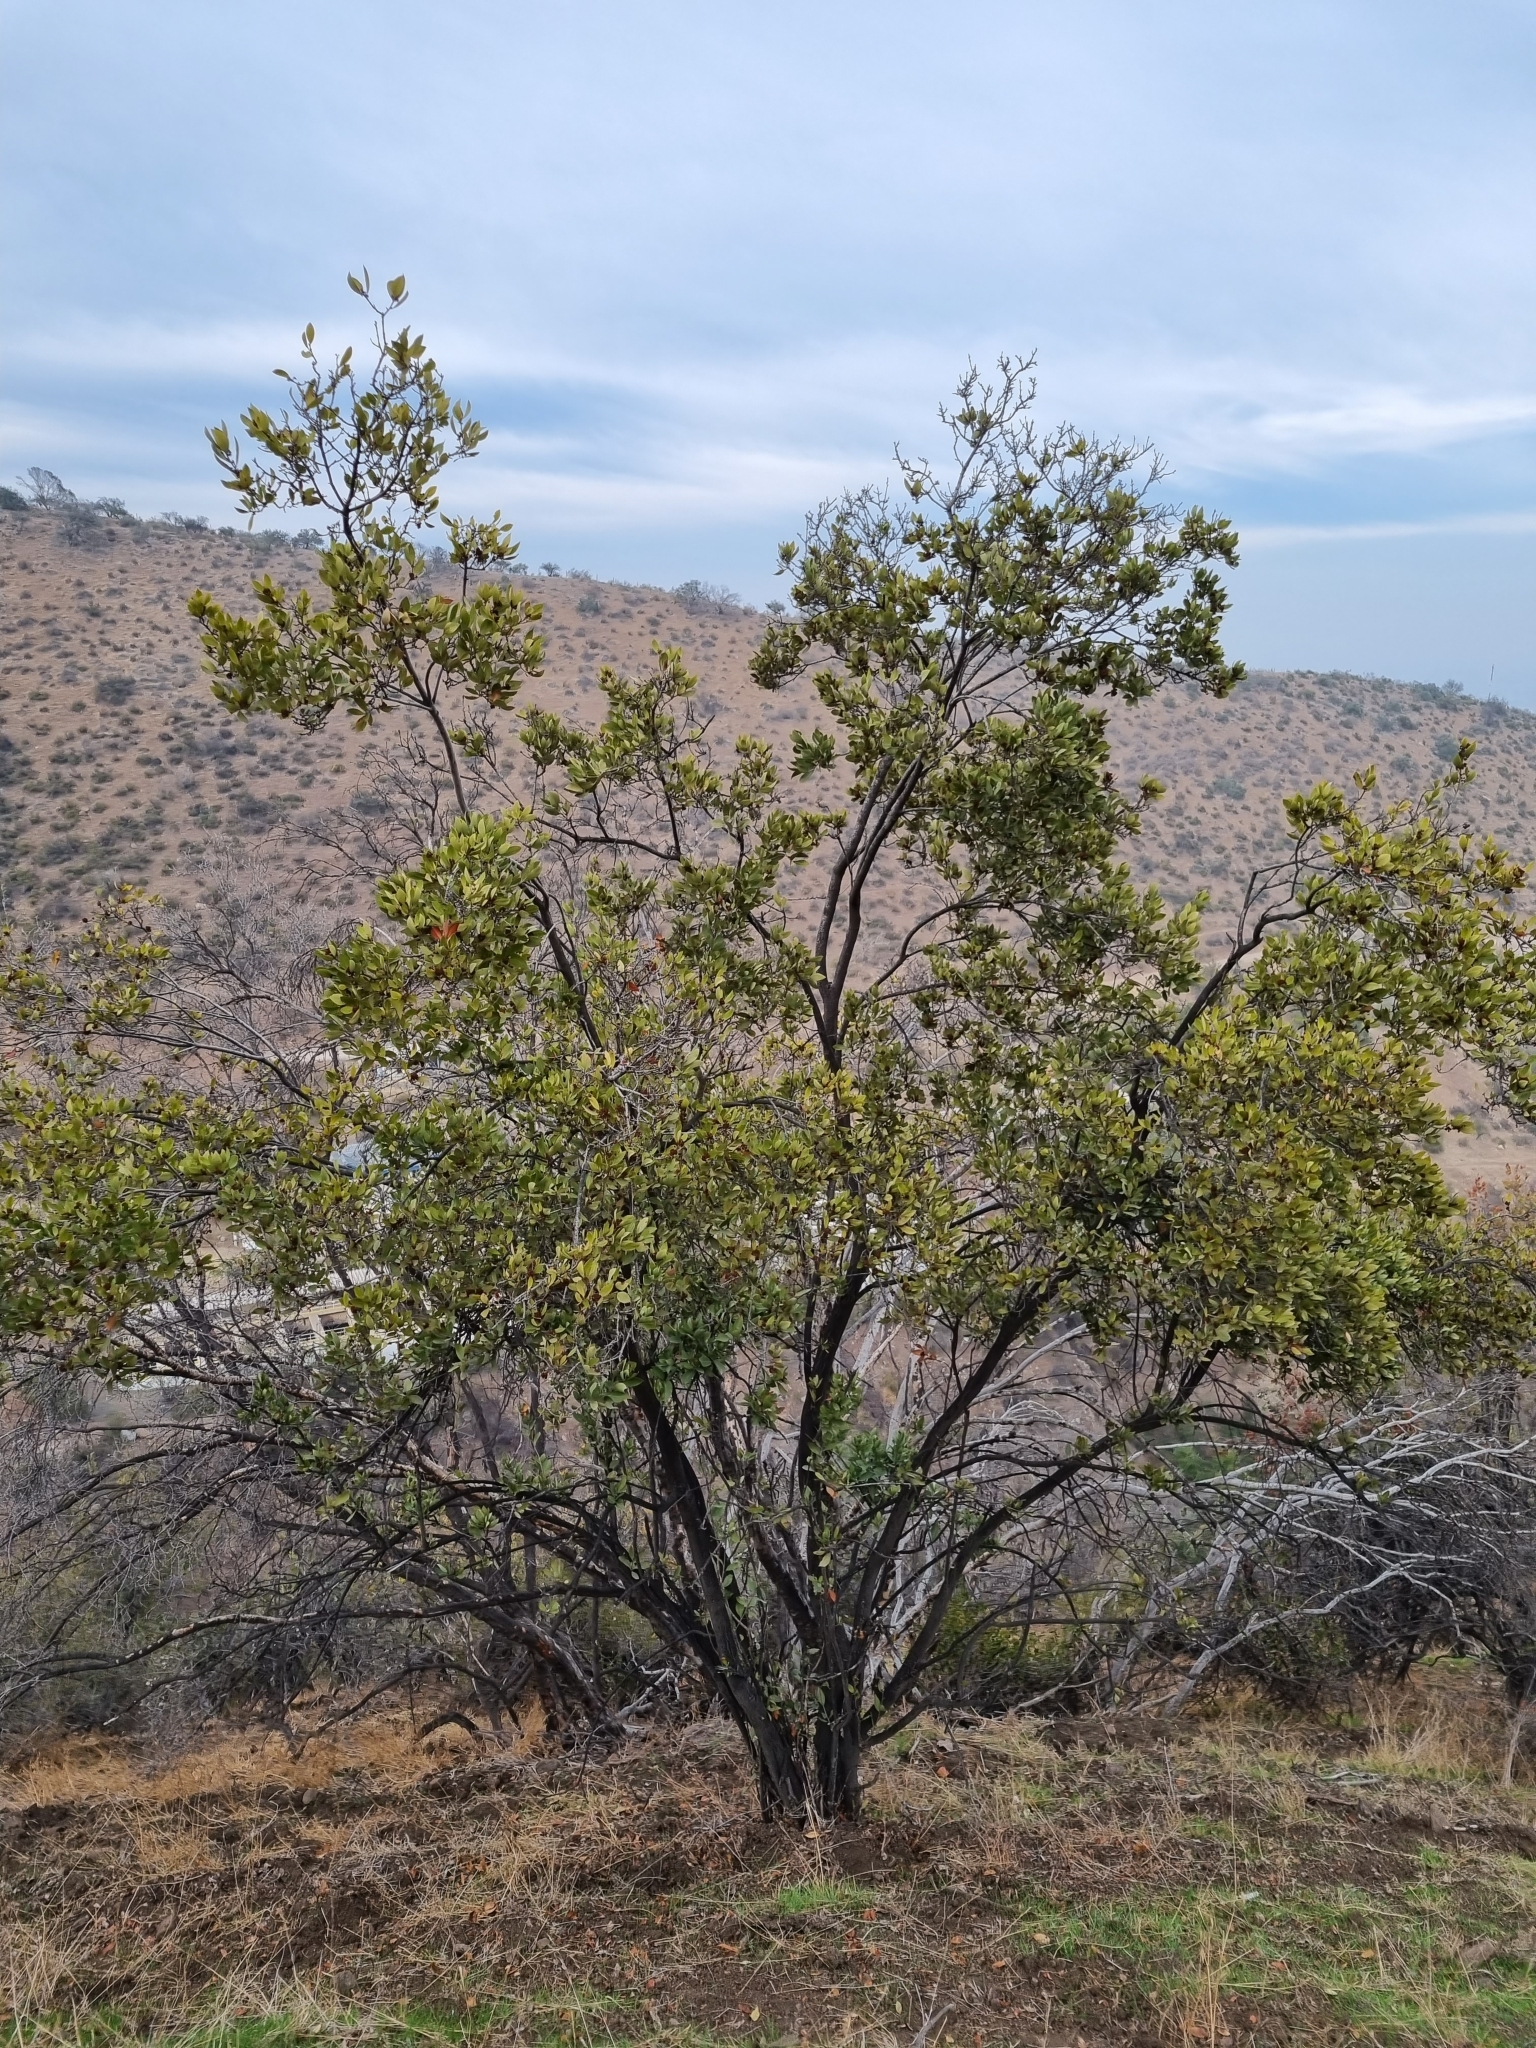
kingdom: Plantae
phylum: Tracheophyta
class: Magnoliopsida
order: Rosales
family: Rosaceae
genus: Kageneckia
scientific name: Kageneckia oblonga
